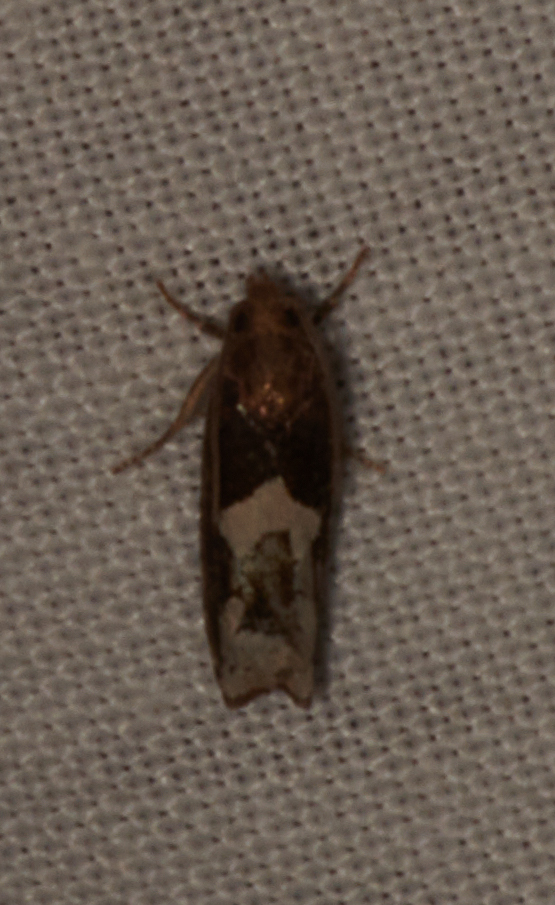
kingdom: Animalia
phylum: Arthropoda
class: Insecta
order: Lepidoptera
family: Tortricidae
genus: Epiblema
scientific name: Epiblema otiosana
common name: Bidens borer moth
